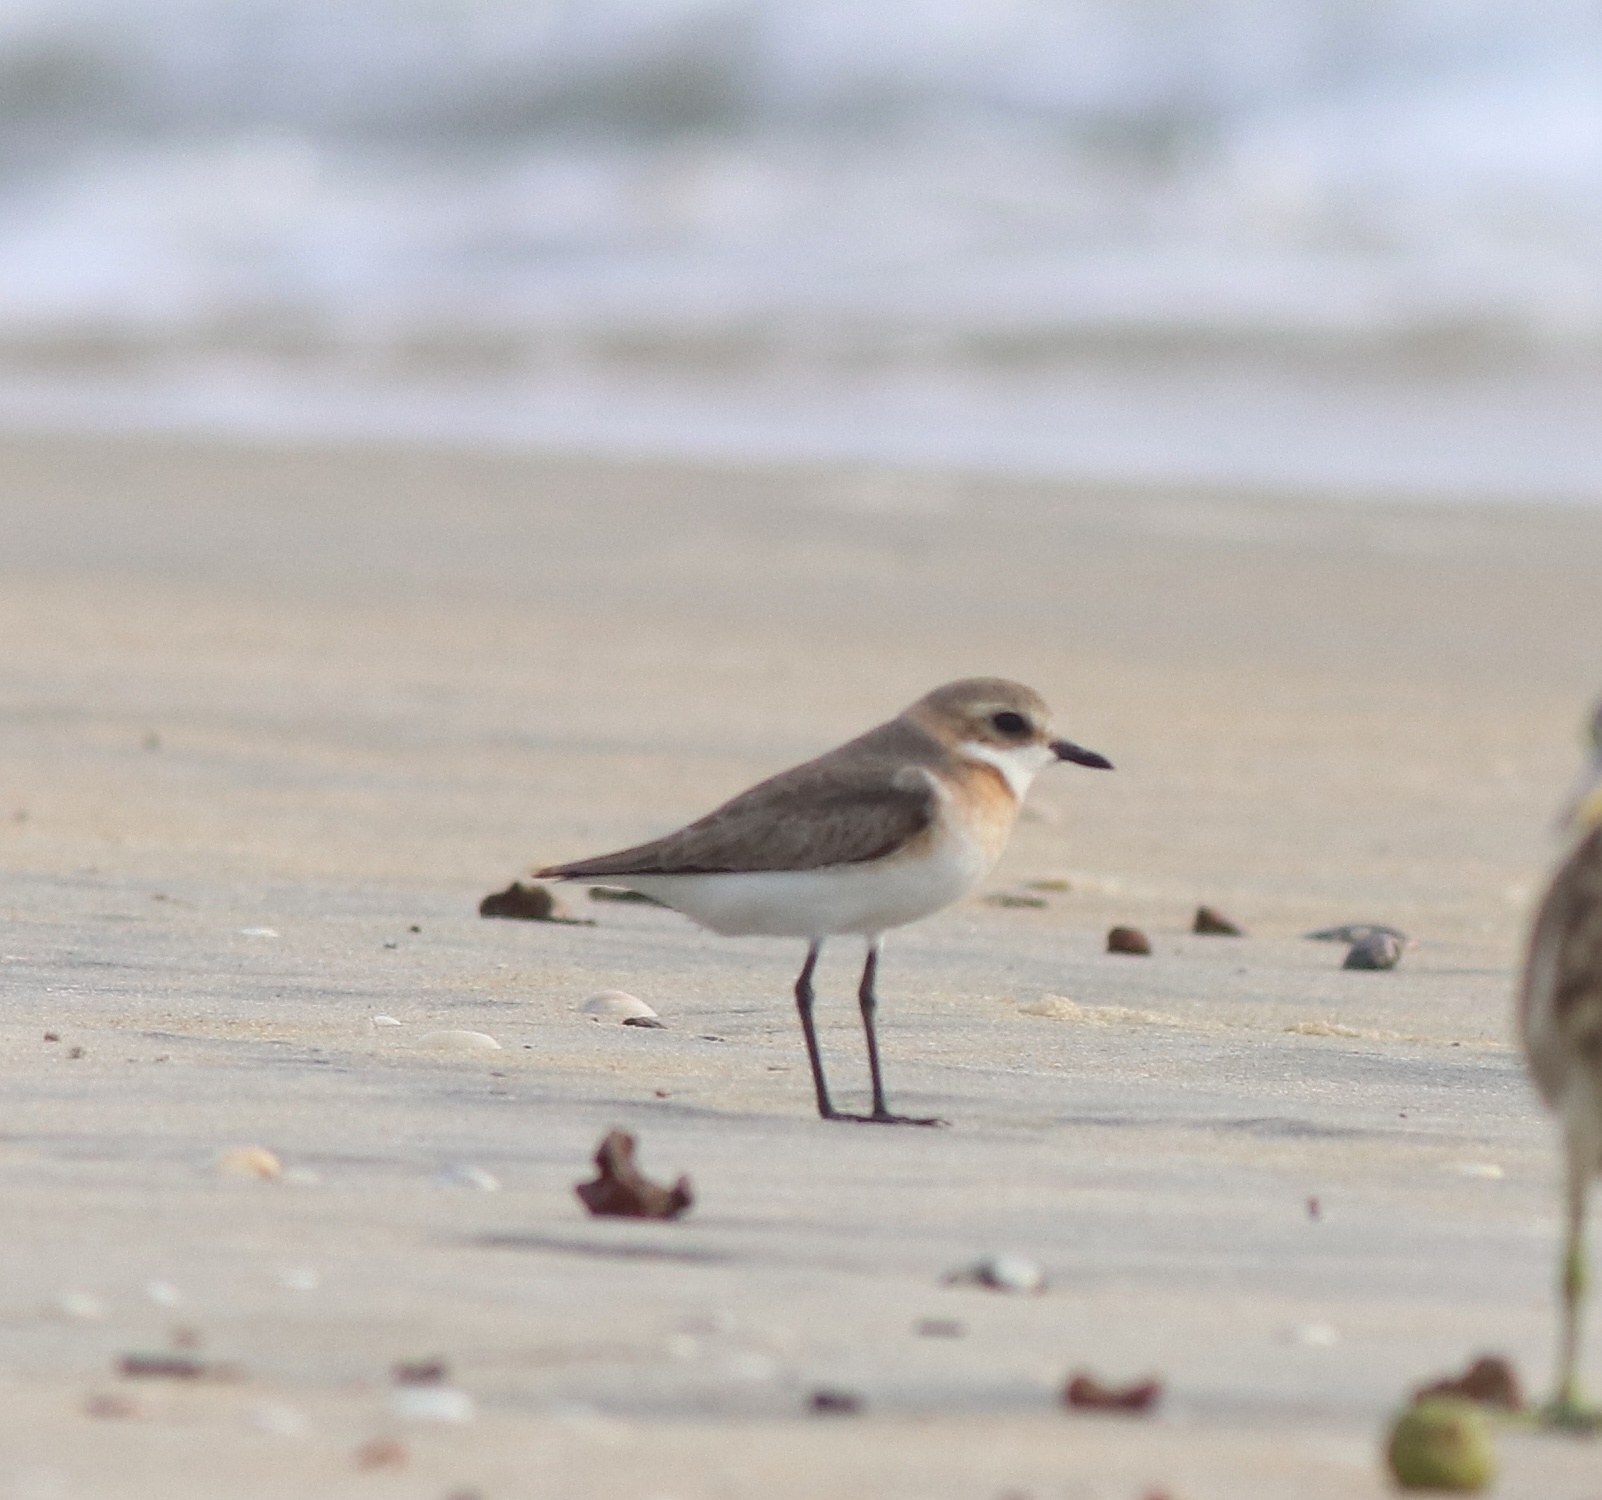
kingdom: Animalia
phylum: Chordata
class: Aves
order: Charadriiformes
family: Charadriidae
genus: Anarhynchus
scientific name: Anarhynchus
